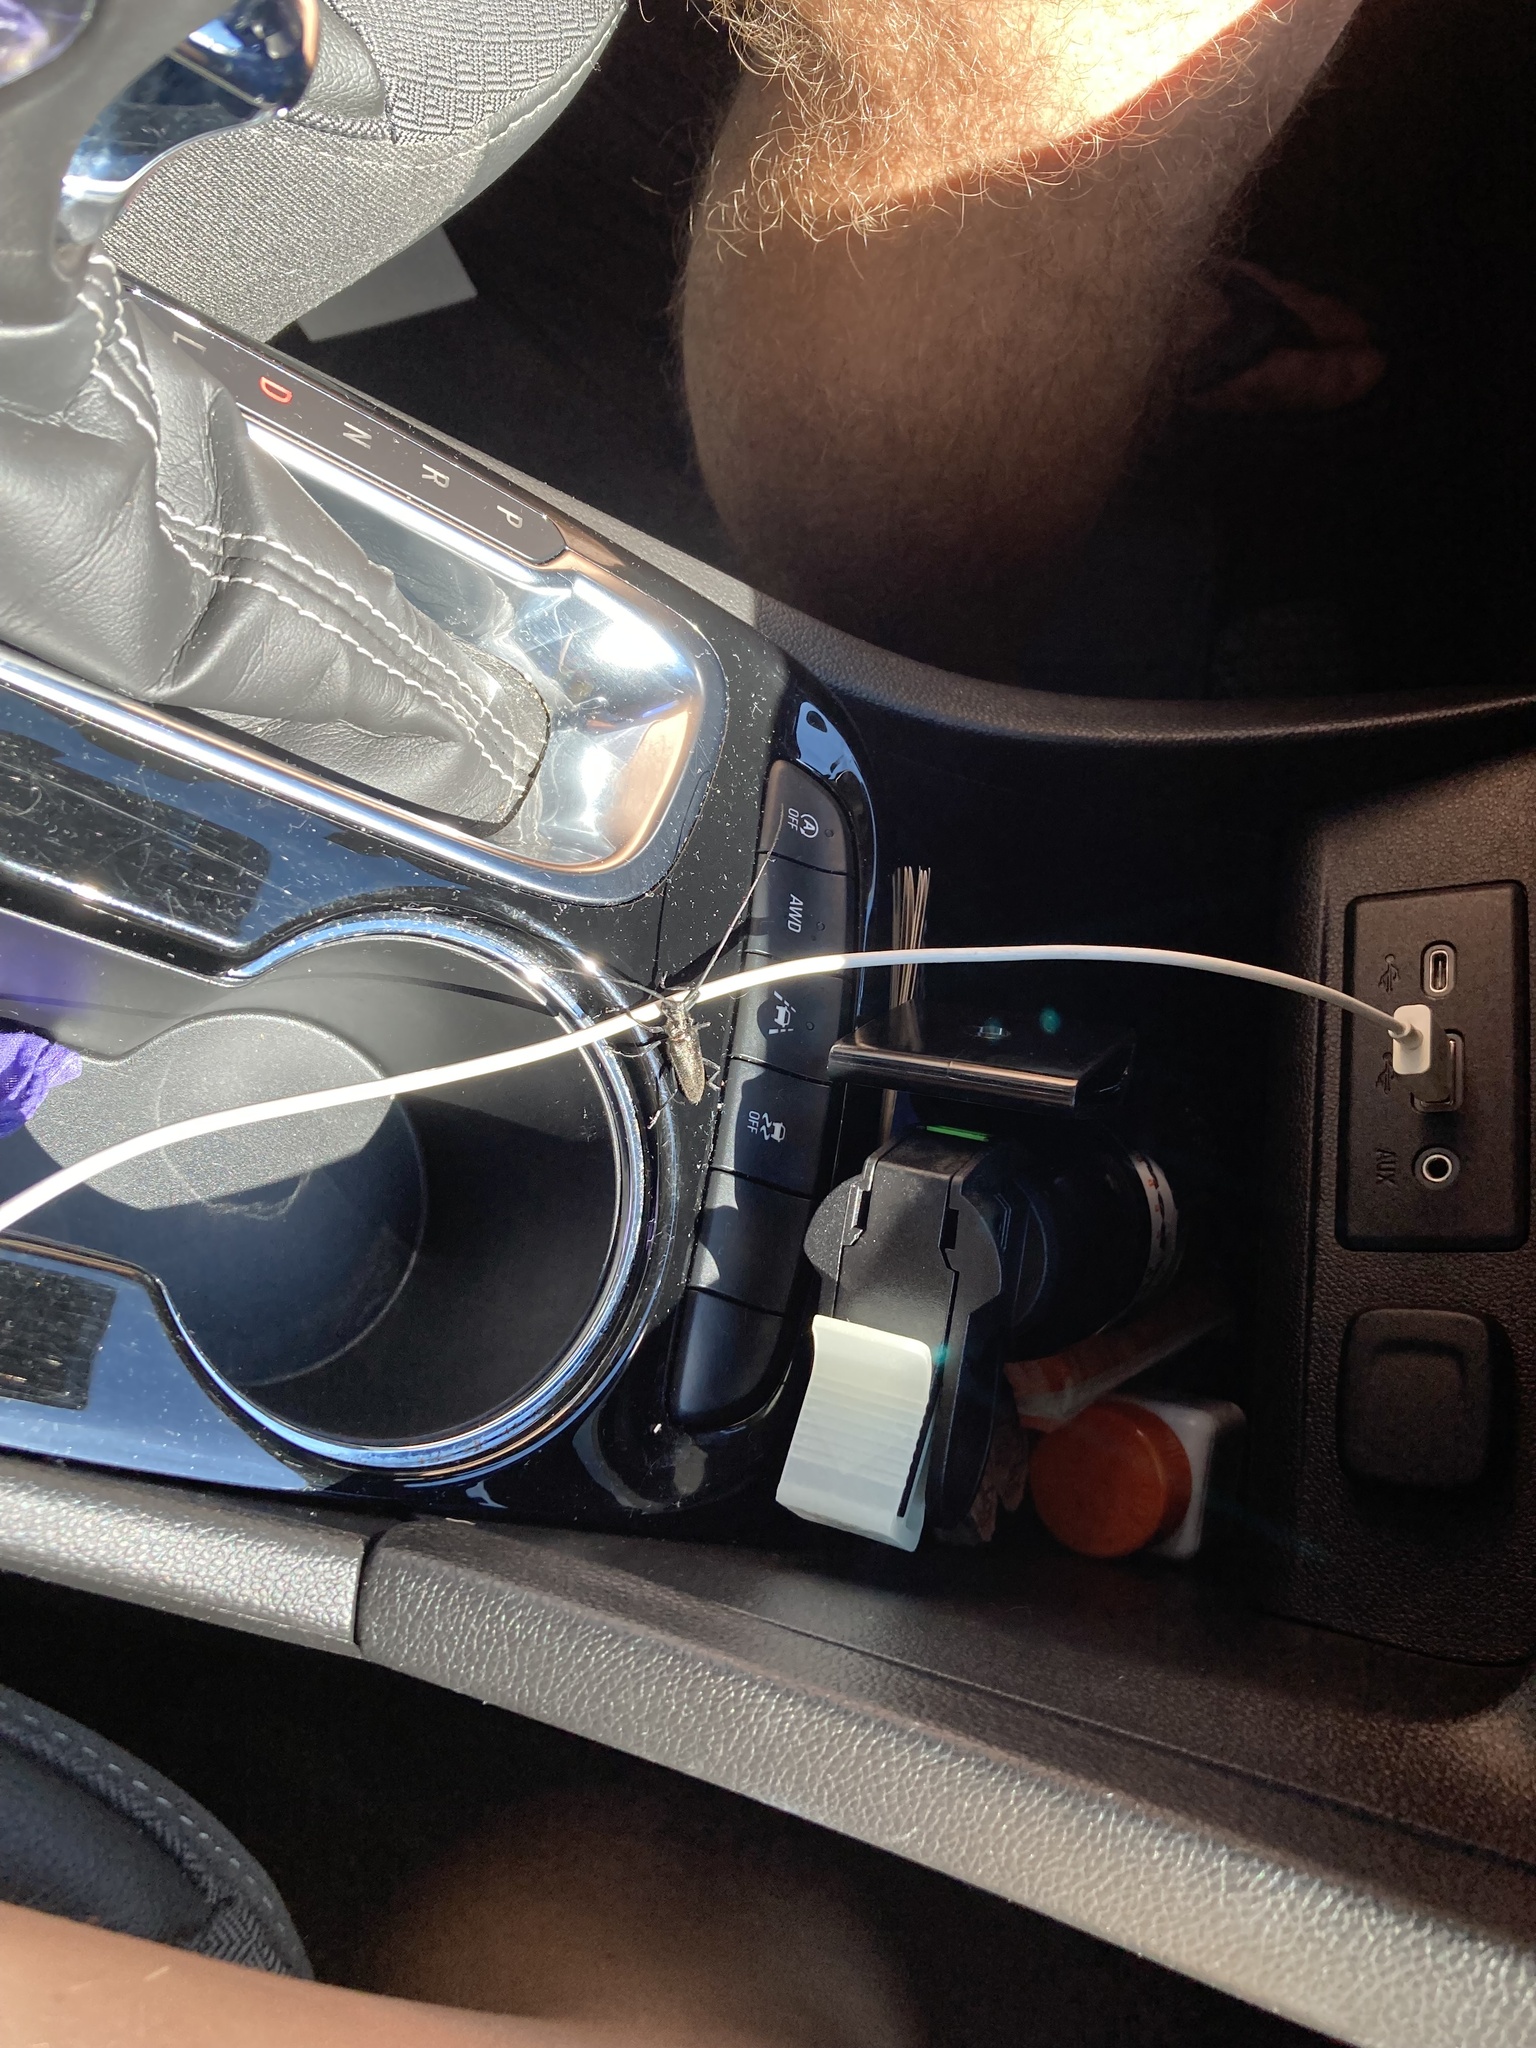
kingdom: Animalia
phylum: Arthropoda
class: Insecta
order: Coleoptera
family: Cerambycidae
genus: Monochamus
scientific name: Monochamus scutellatus
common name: White-spotted sawyer beetle
